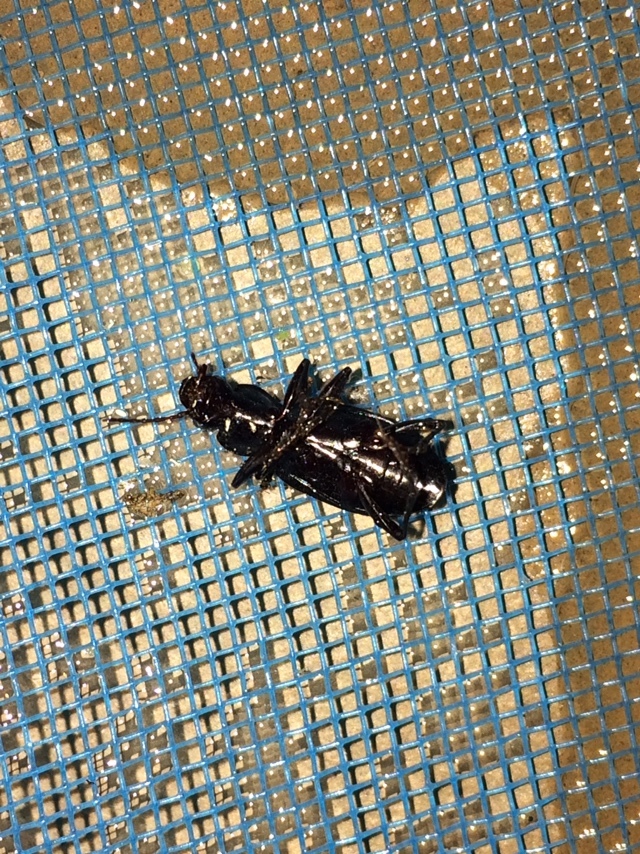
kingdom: Animalia
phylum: Arthropoda
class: Insecta
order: Coleoptera
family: Carabidae
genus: Laemostenus
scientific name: Laemostenus complanatus
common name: Cosmopolitan ground beetle
